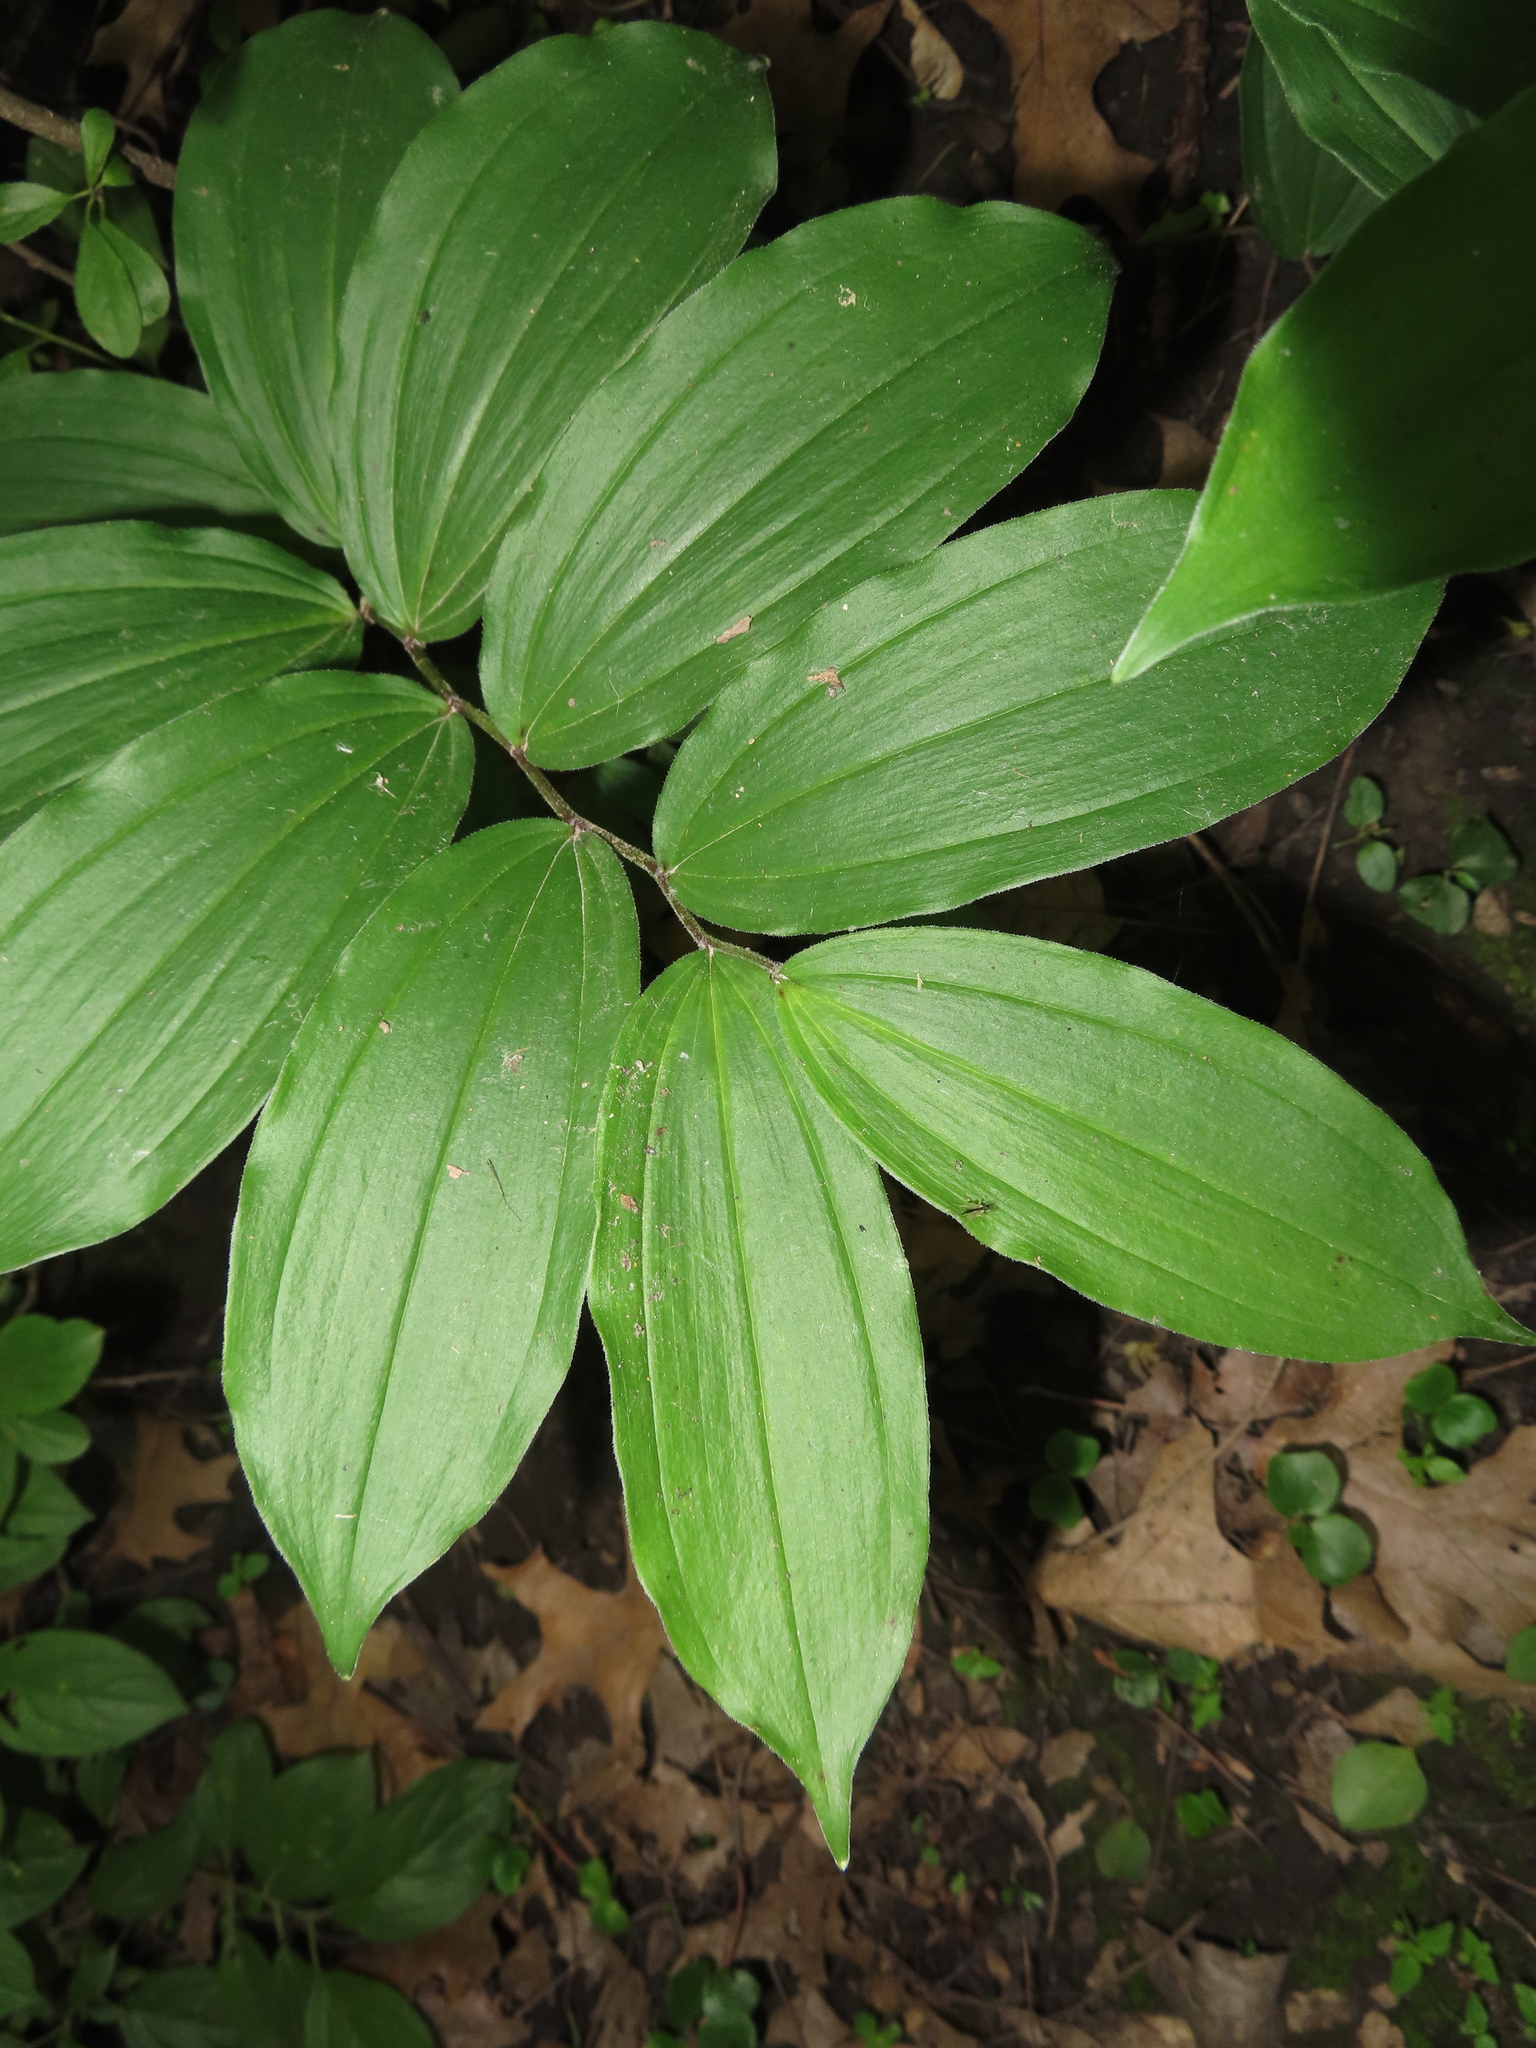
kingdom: Plantae
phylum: Tracheophyta
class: Liliopsida
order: Asparagales
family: Asparagaceae
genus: Maianthemum
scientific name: Maianthemum racemosum
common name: False spikenard
